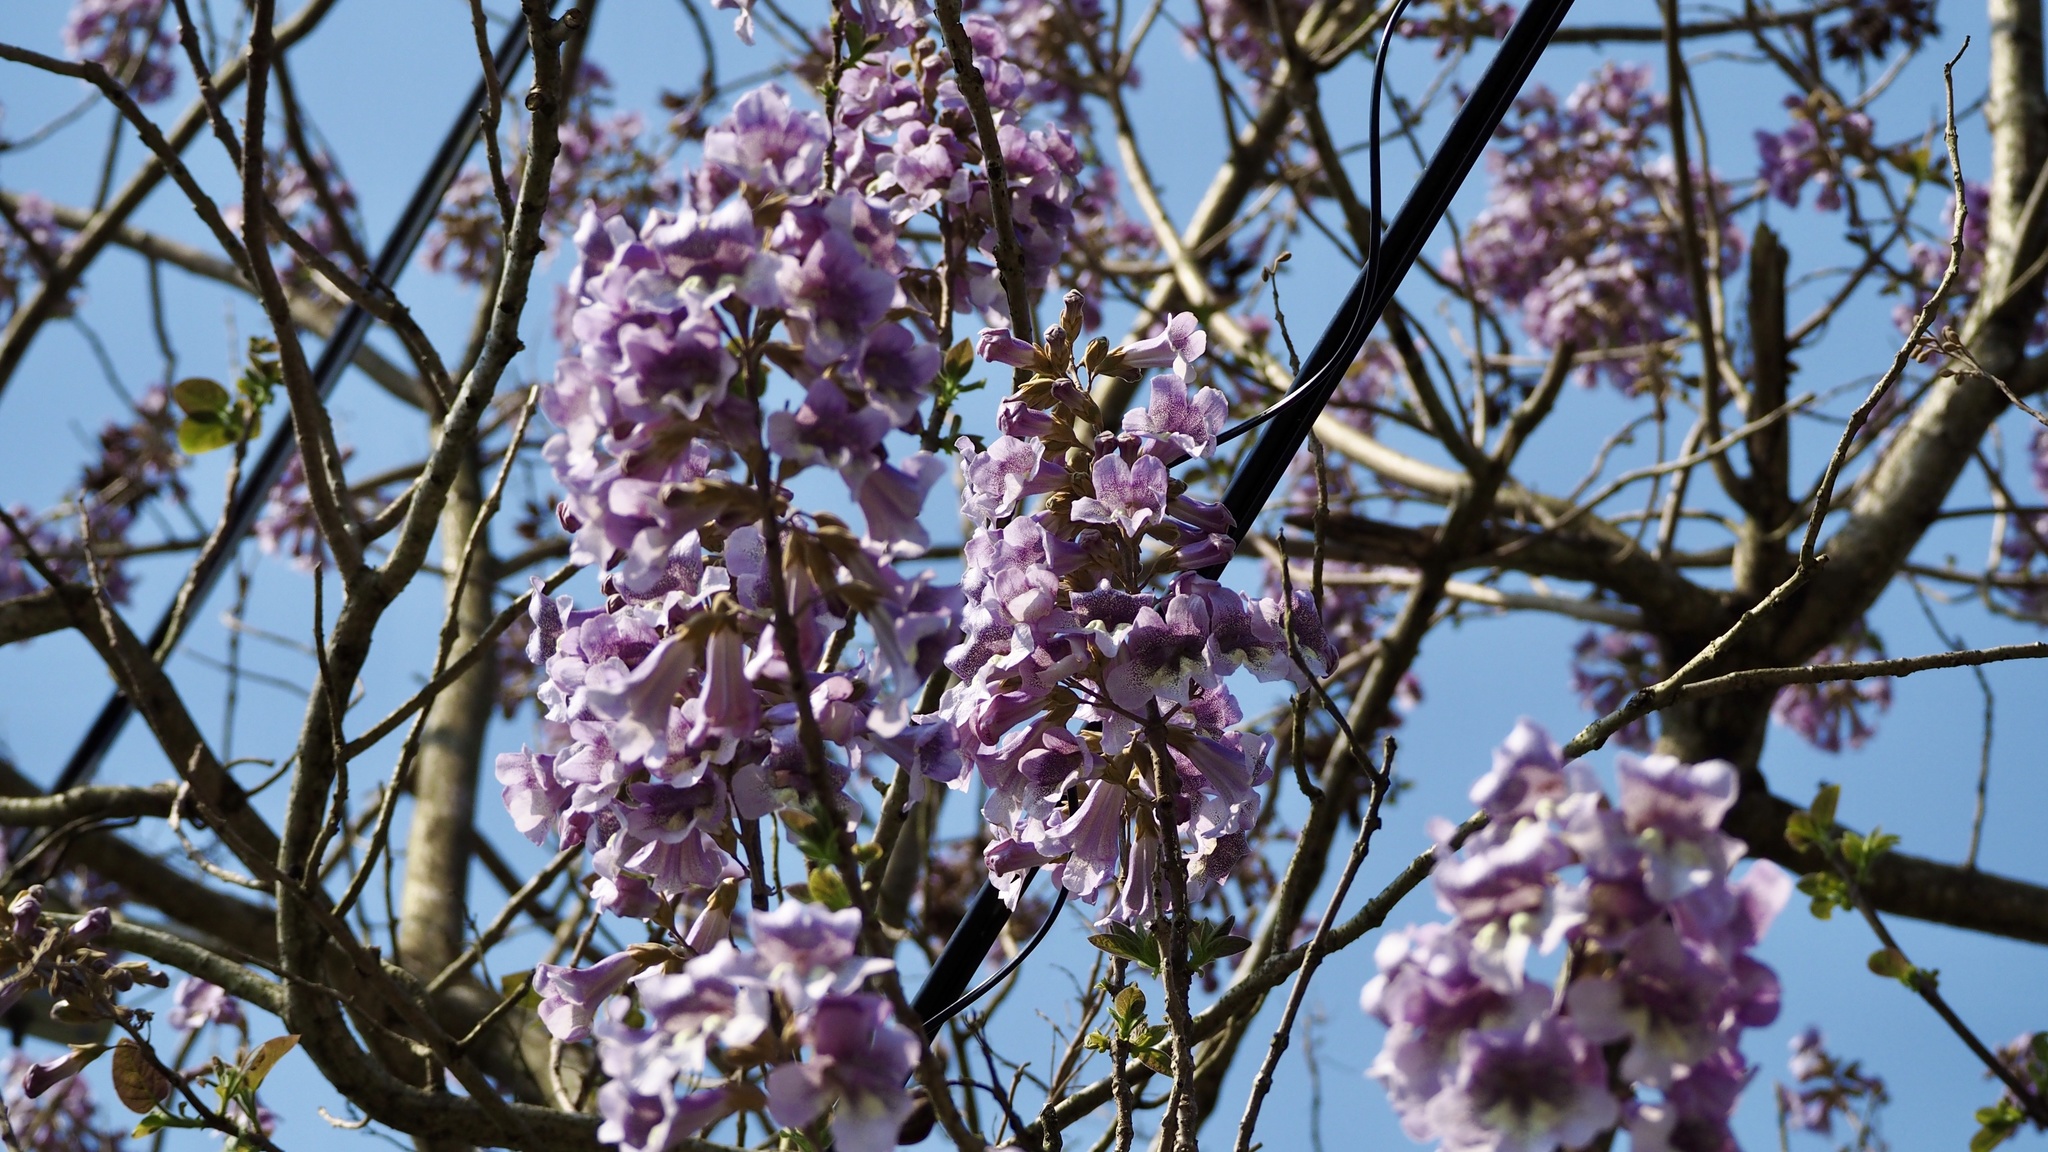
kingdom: Plantae
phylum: Tracheophyta
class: Magnoliopsida
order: Lamiales
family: Paulowniaceae
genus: Paulownia
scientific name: Paulownia tomentosa
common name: Foxglove-tree
